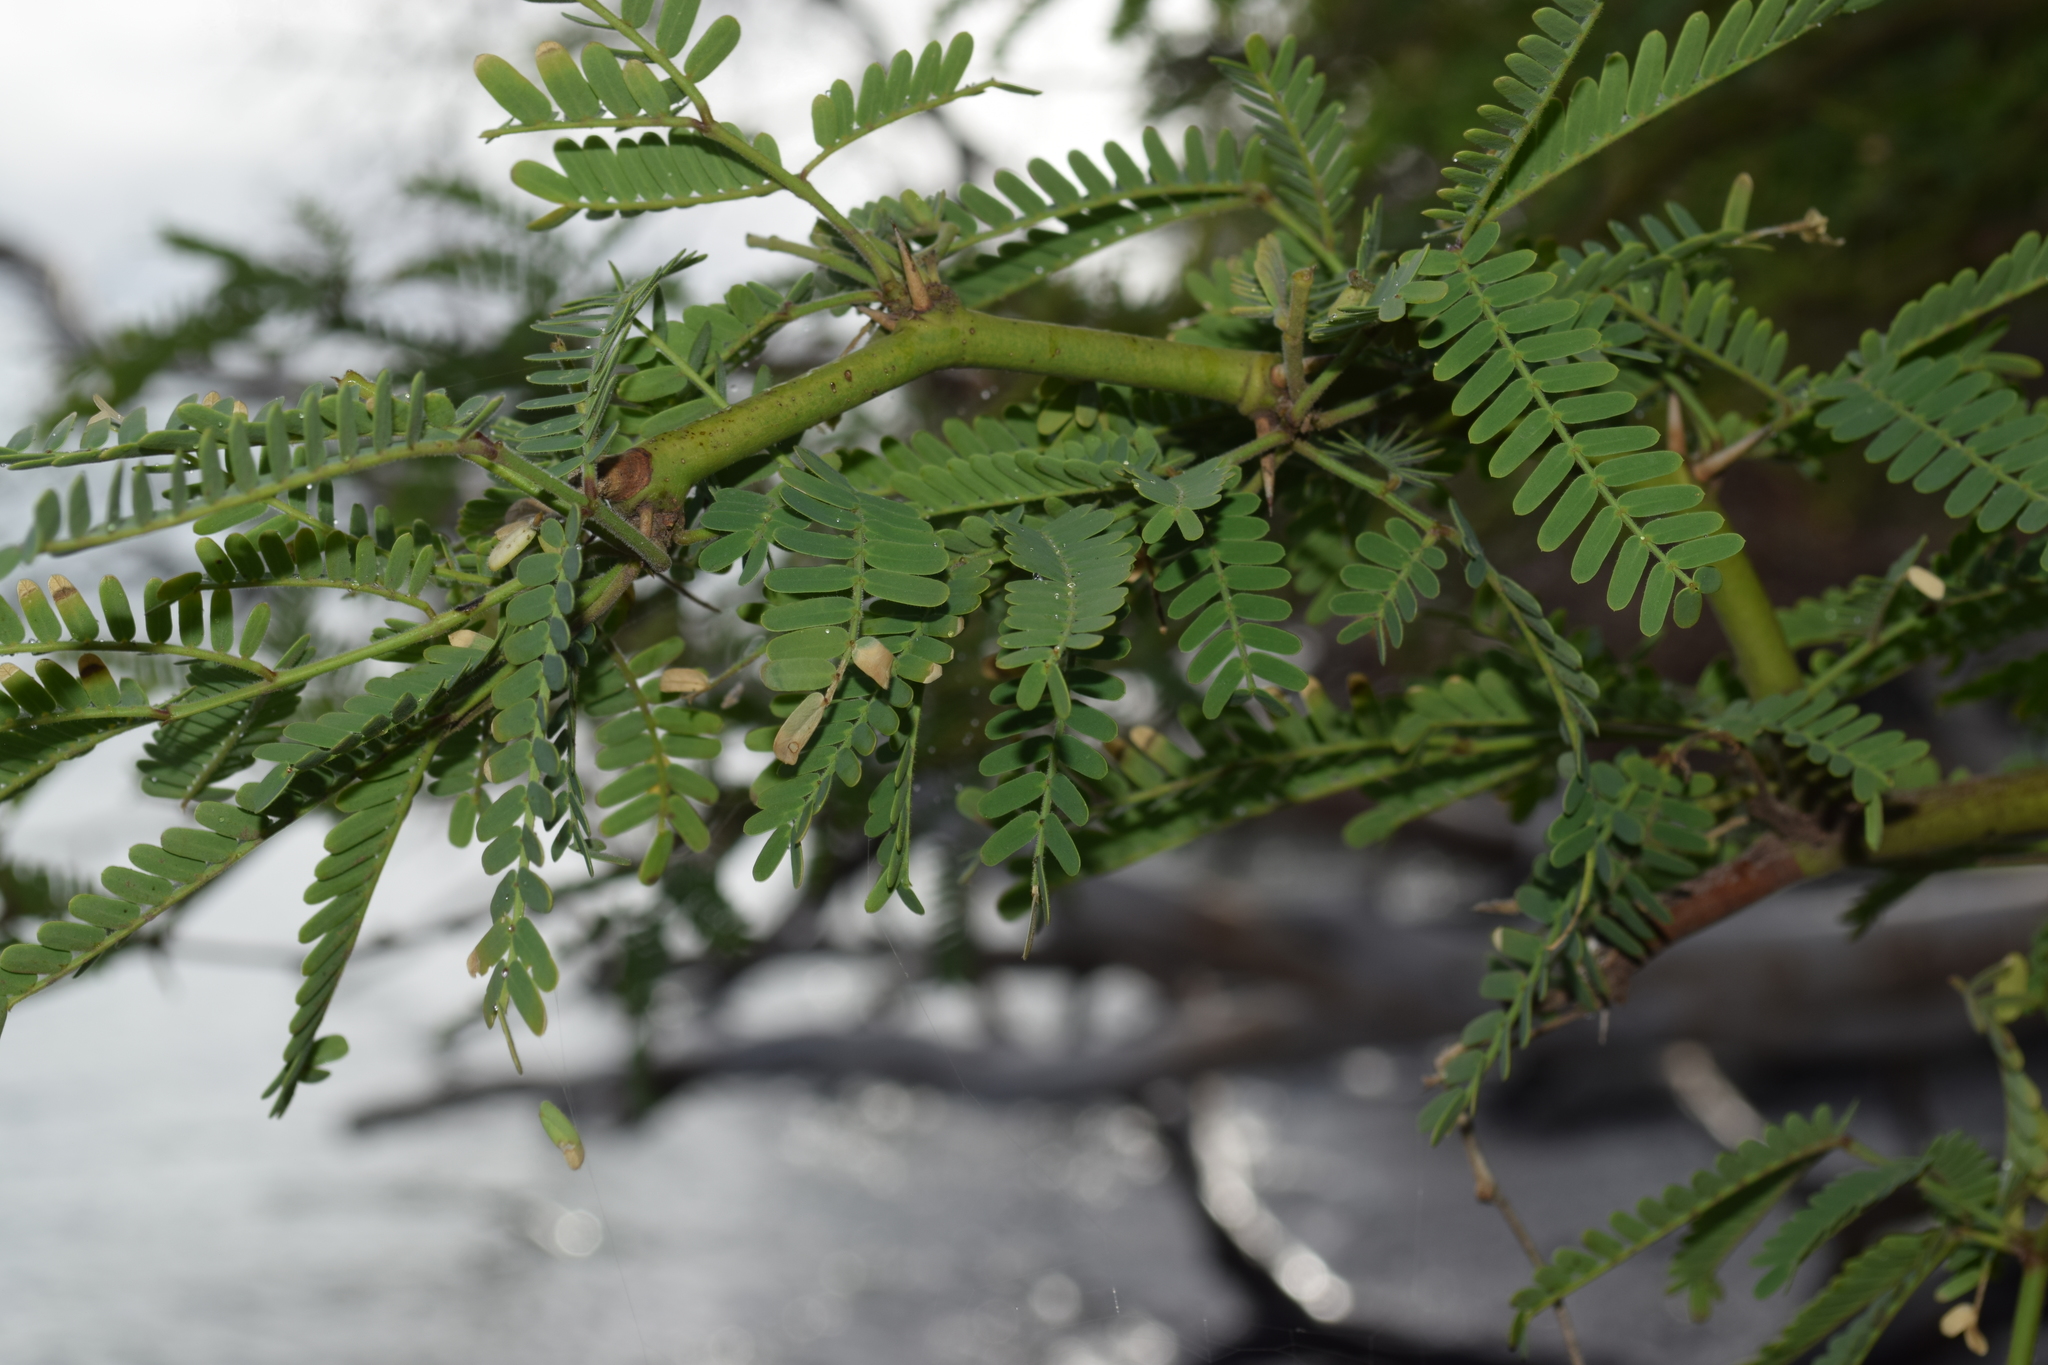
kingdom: Plantae
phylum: Tracheophyta
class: Magnoliopsida
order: Fabales
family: Fabaceae
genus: Prosopis
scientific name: Prosopis pallida
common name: Mesquite
